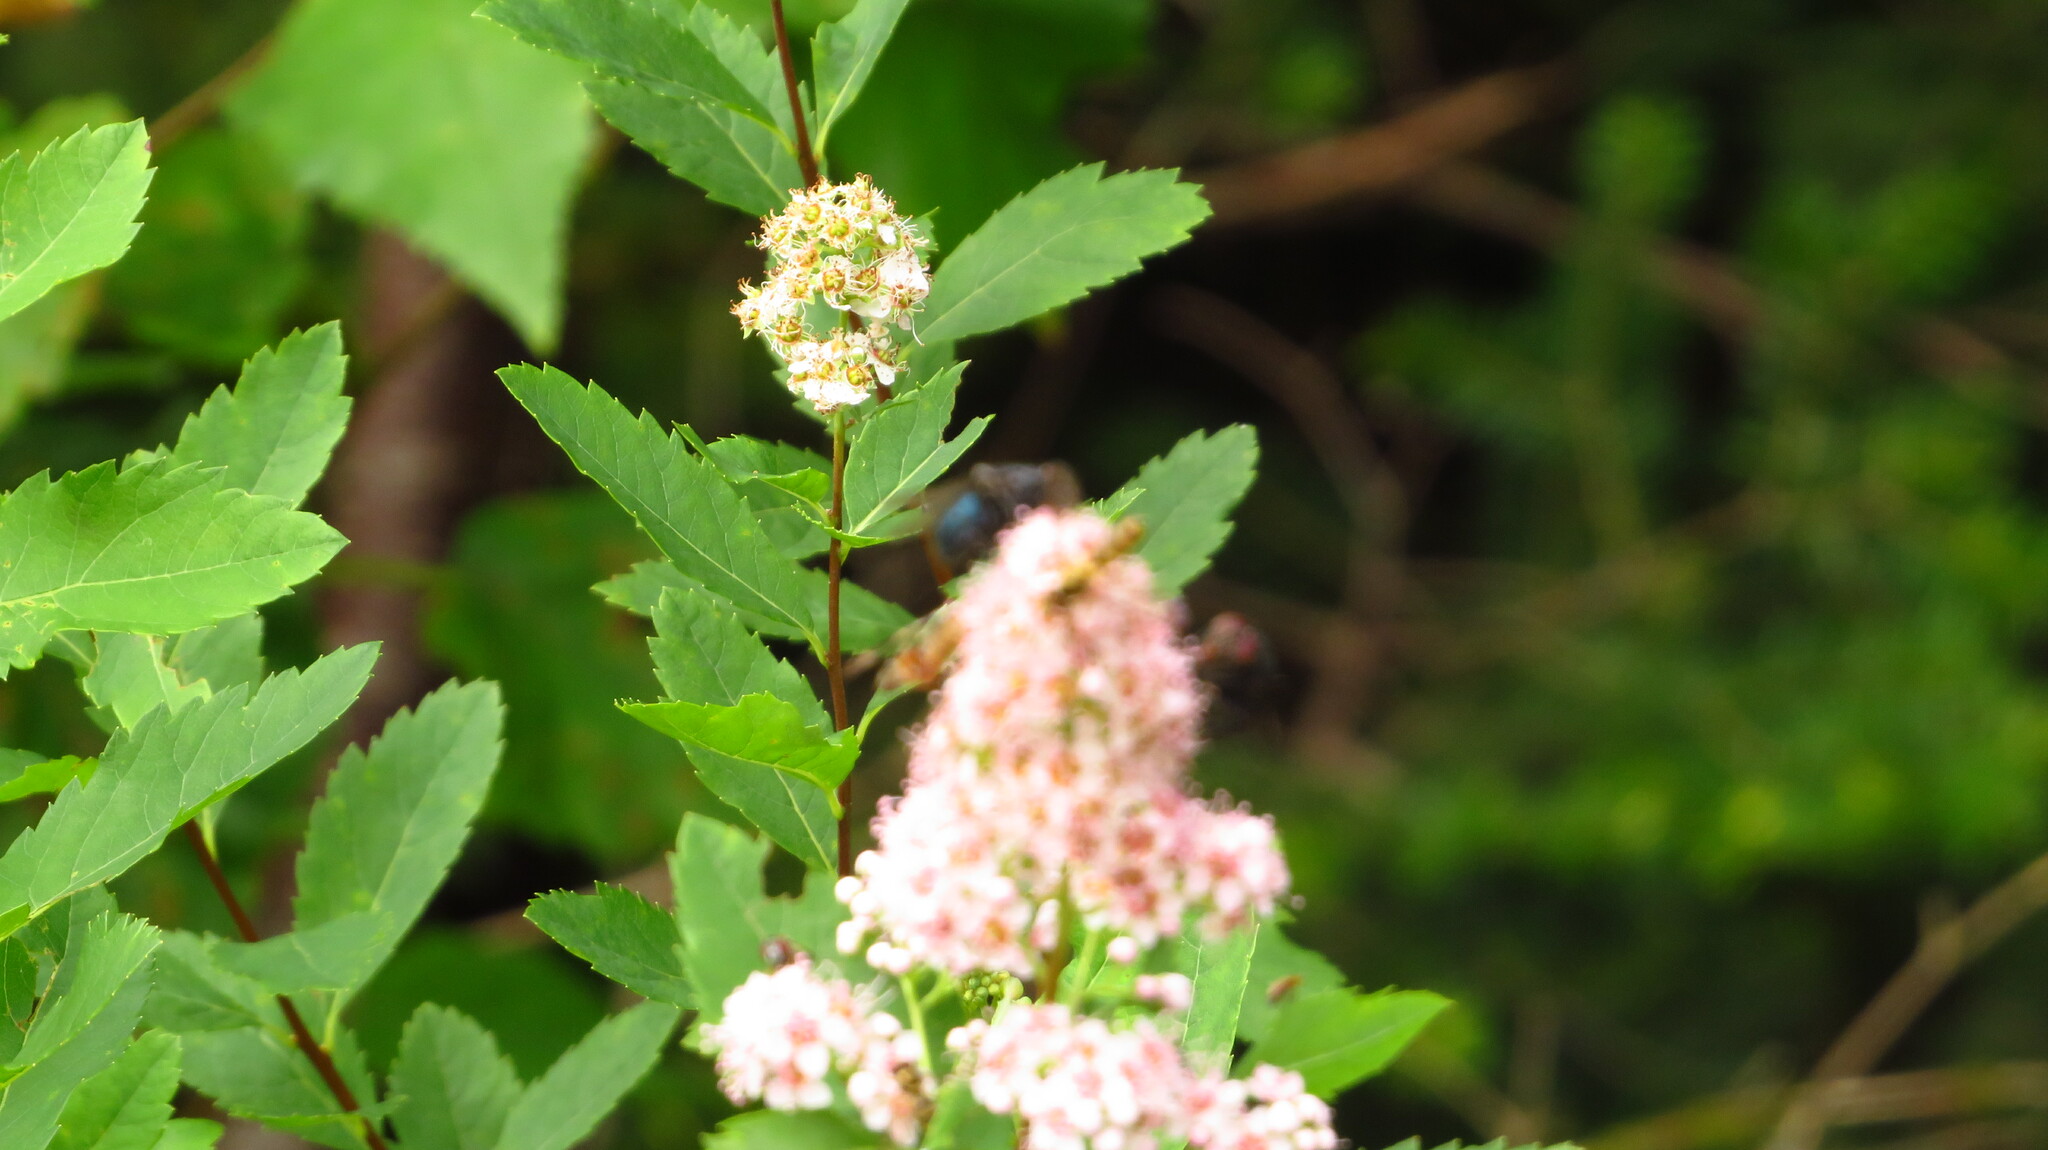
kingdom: Plantae
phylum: Tracheophyta
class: Magnoliopsida
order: Rosales
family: Rosaceae
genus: Spiraea
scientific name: Spiraea alba
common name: Pale bridewort
